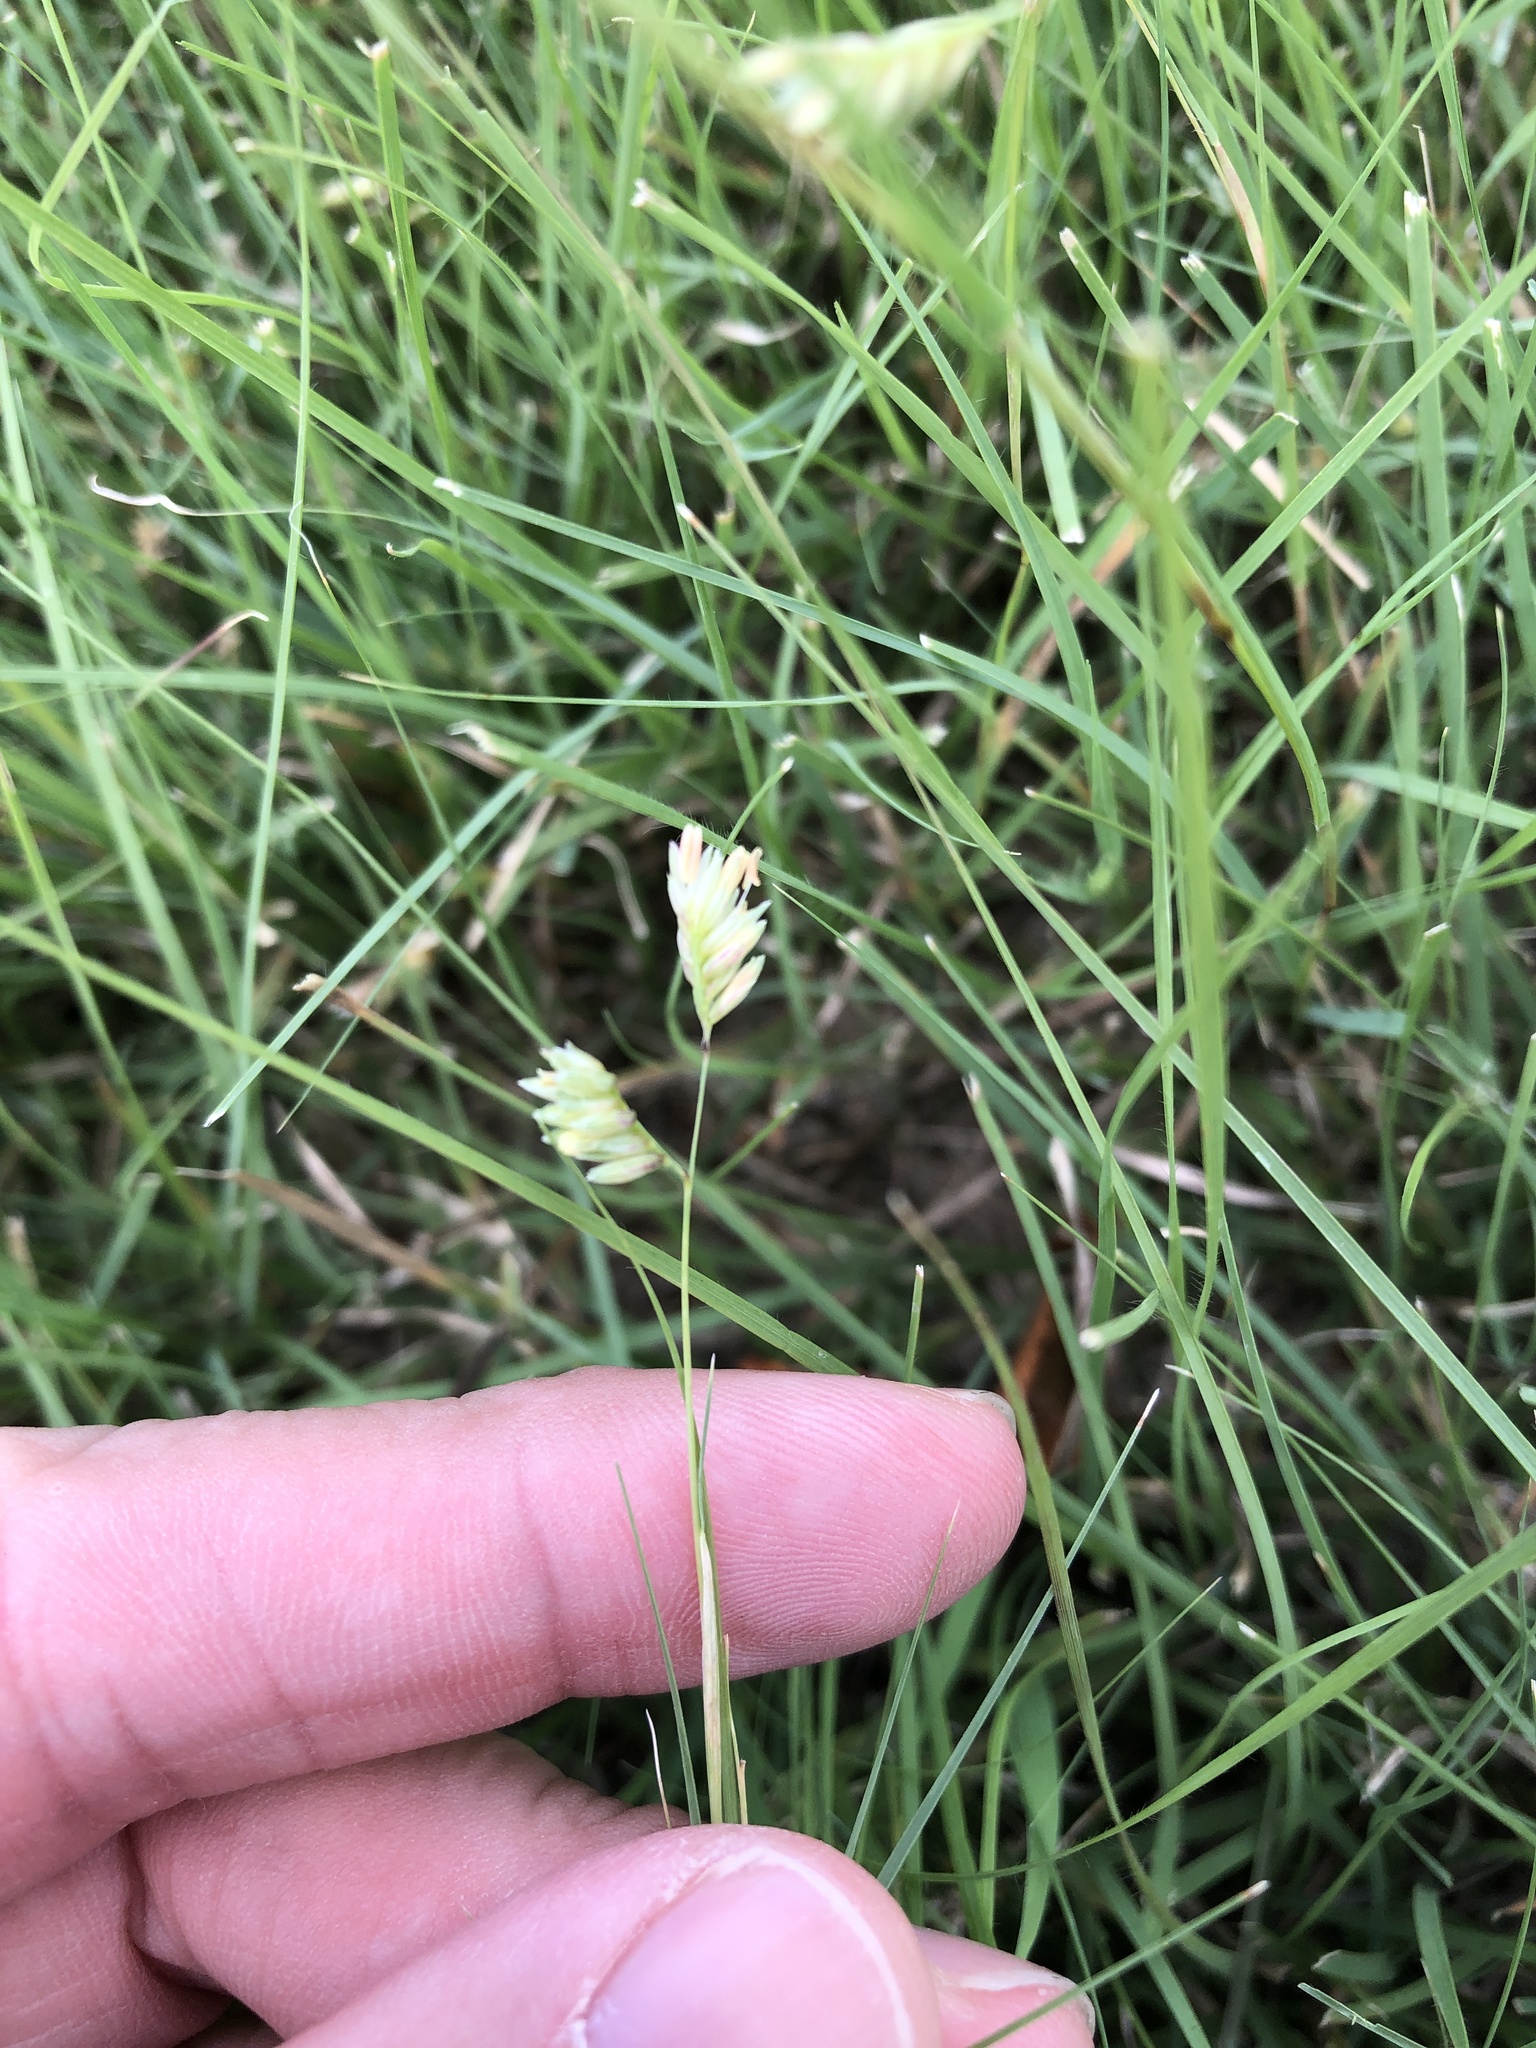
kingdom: Plantae
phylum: Tracheophyta
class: Liliopsida
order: Poales
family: Poaceae
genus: Bouteloua
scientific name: Bouteloua dactyloides
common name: Buffalo grass
